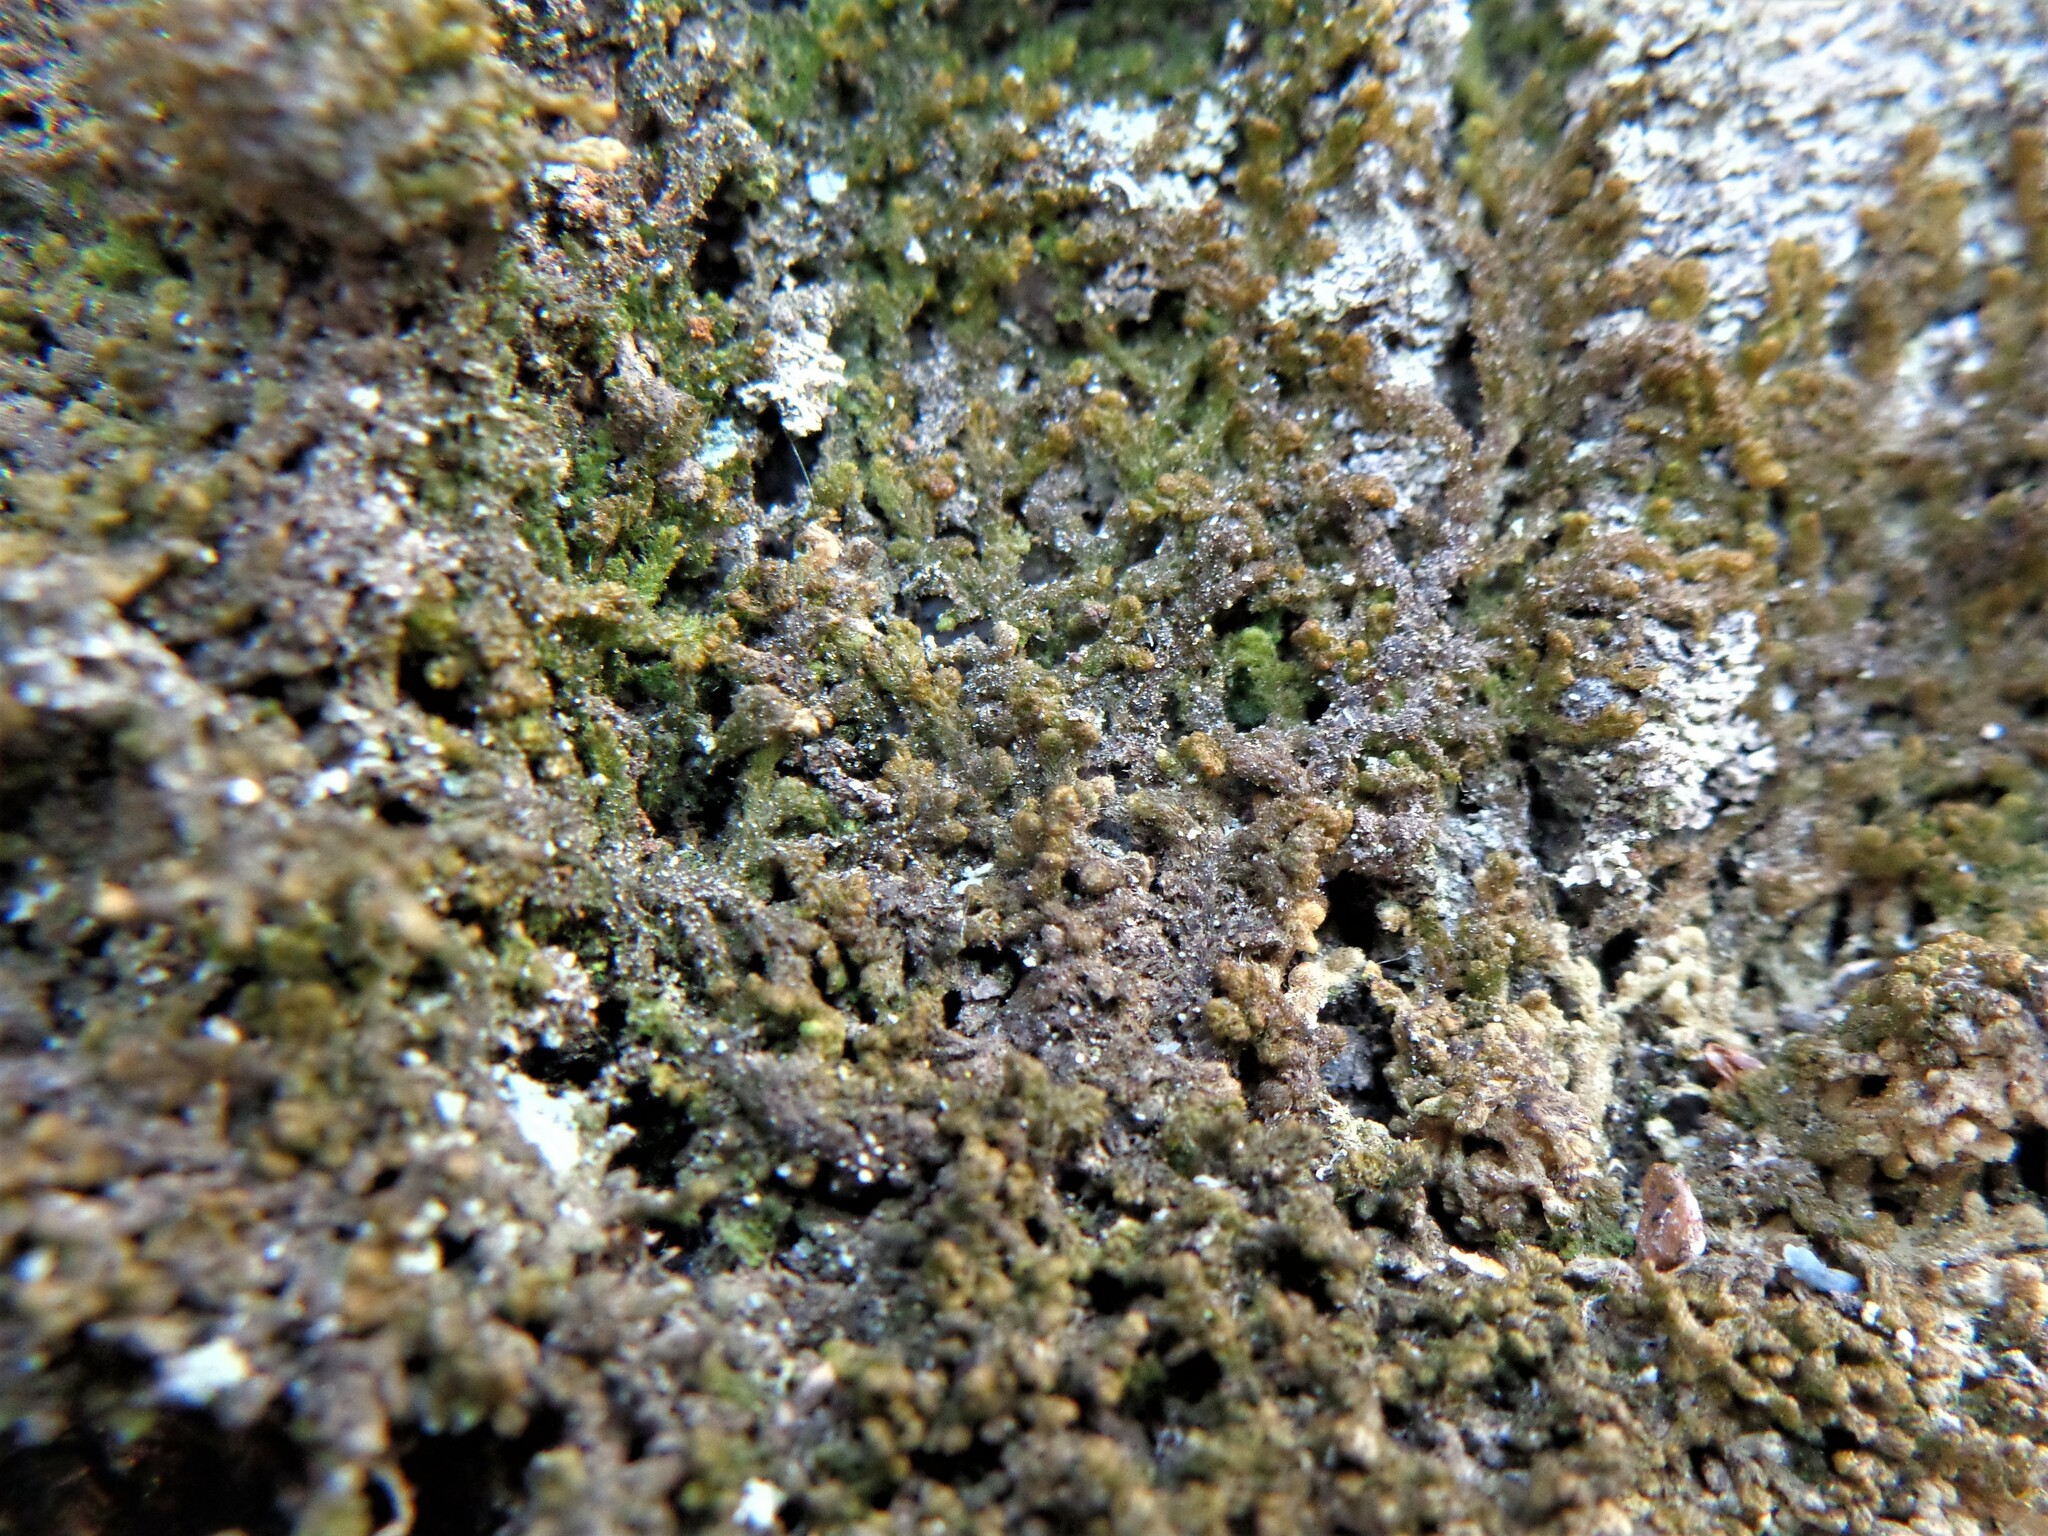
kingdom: Plantae
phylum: Marchantiophyta
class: Jungermanniopsida
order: Ptilidiales
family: Ptilidiaceae
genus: Ptilidium
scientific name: Ptilidium pulcherrimum
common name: Tree fringewort
